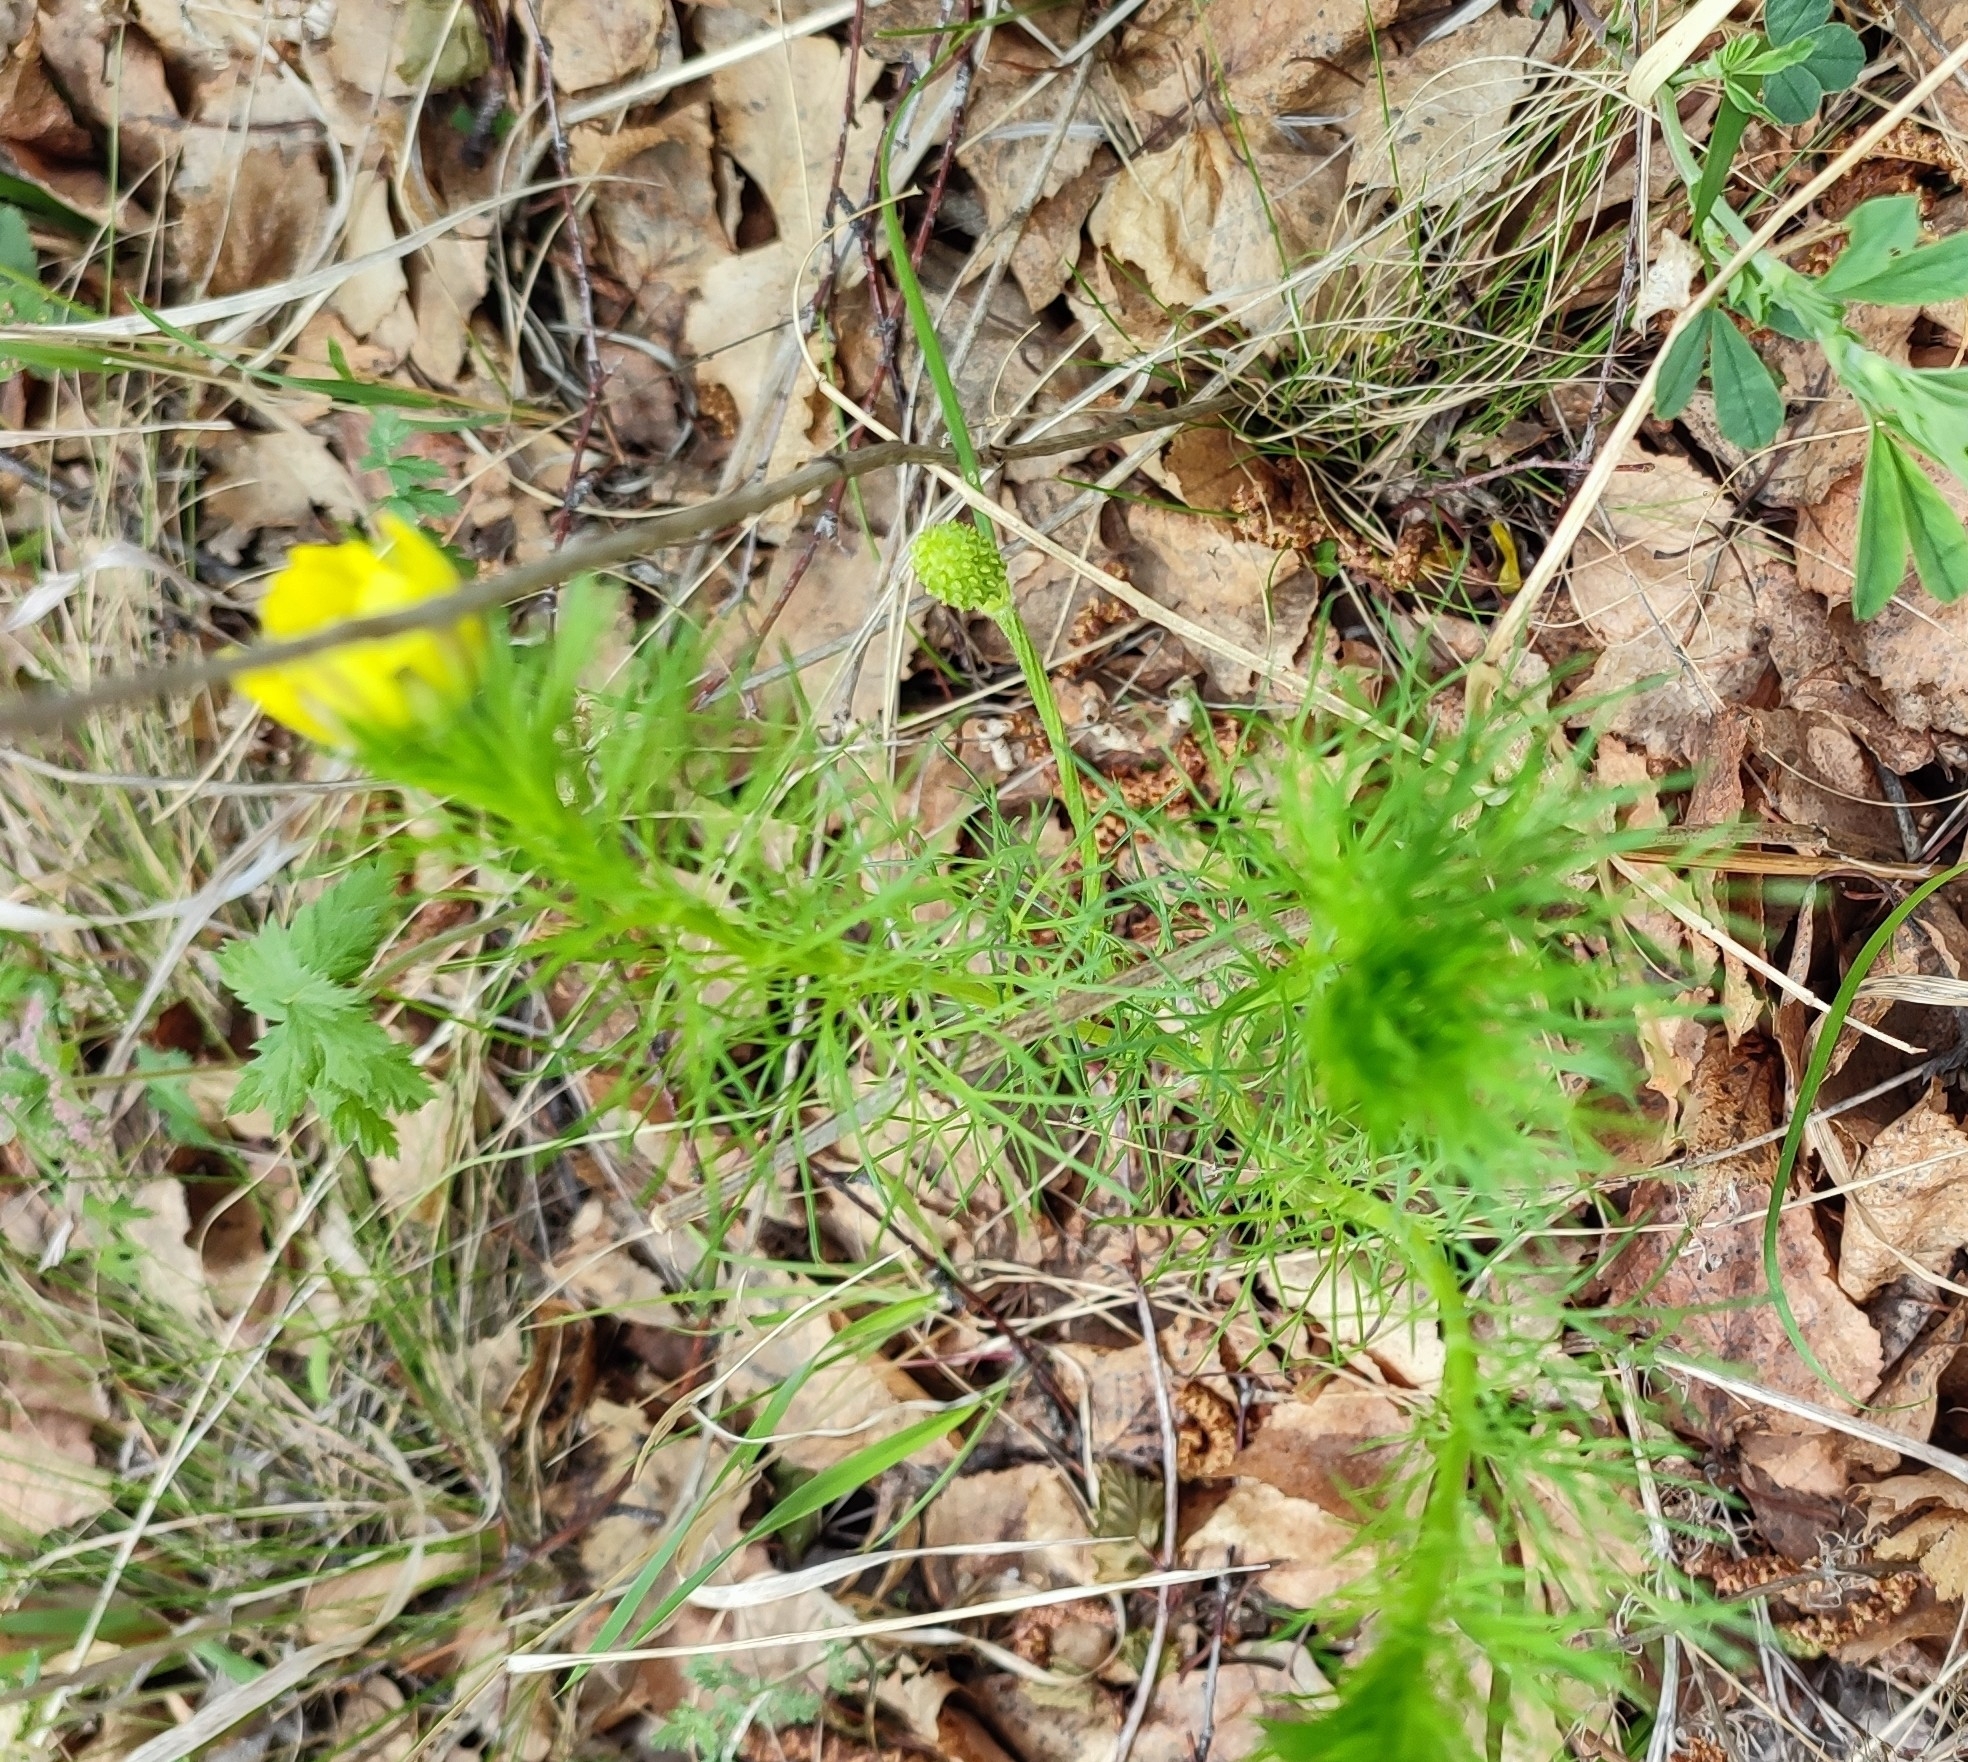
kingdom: Plantae
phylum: Tracheophyta
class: Magnoliopsida
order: Ranunculales
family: Ranunculaceae
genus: Adonis
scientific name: Adonis vernalis
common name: Yellow pheasants-eye
